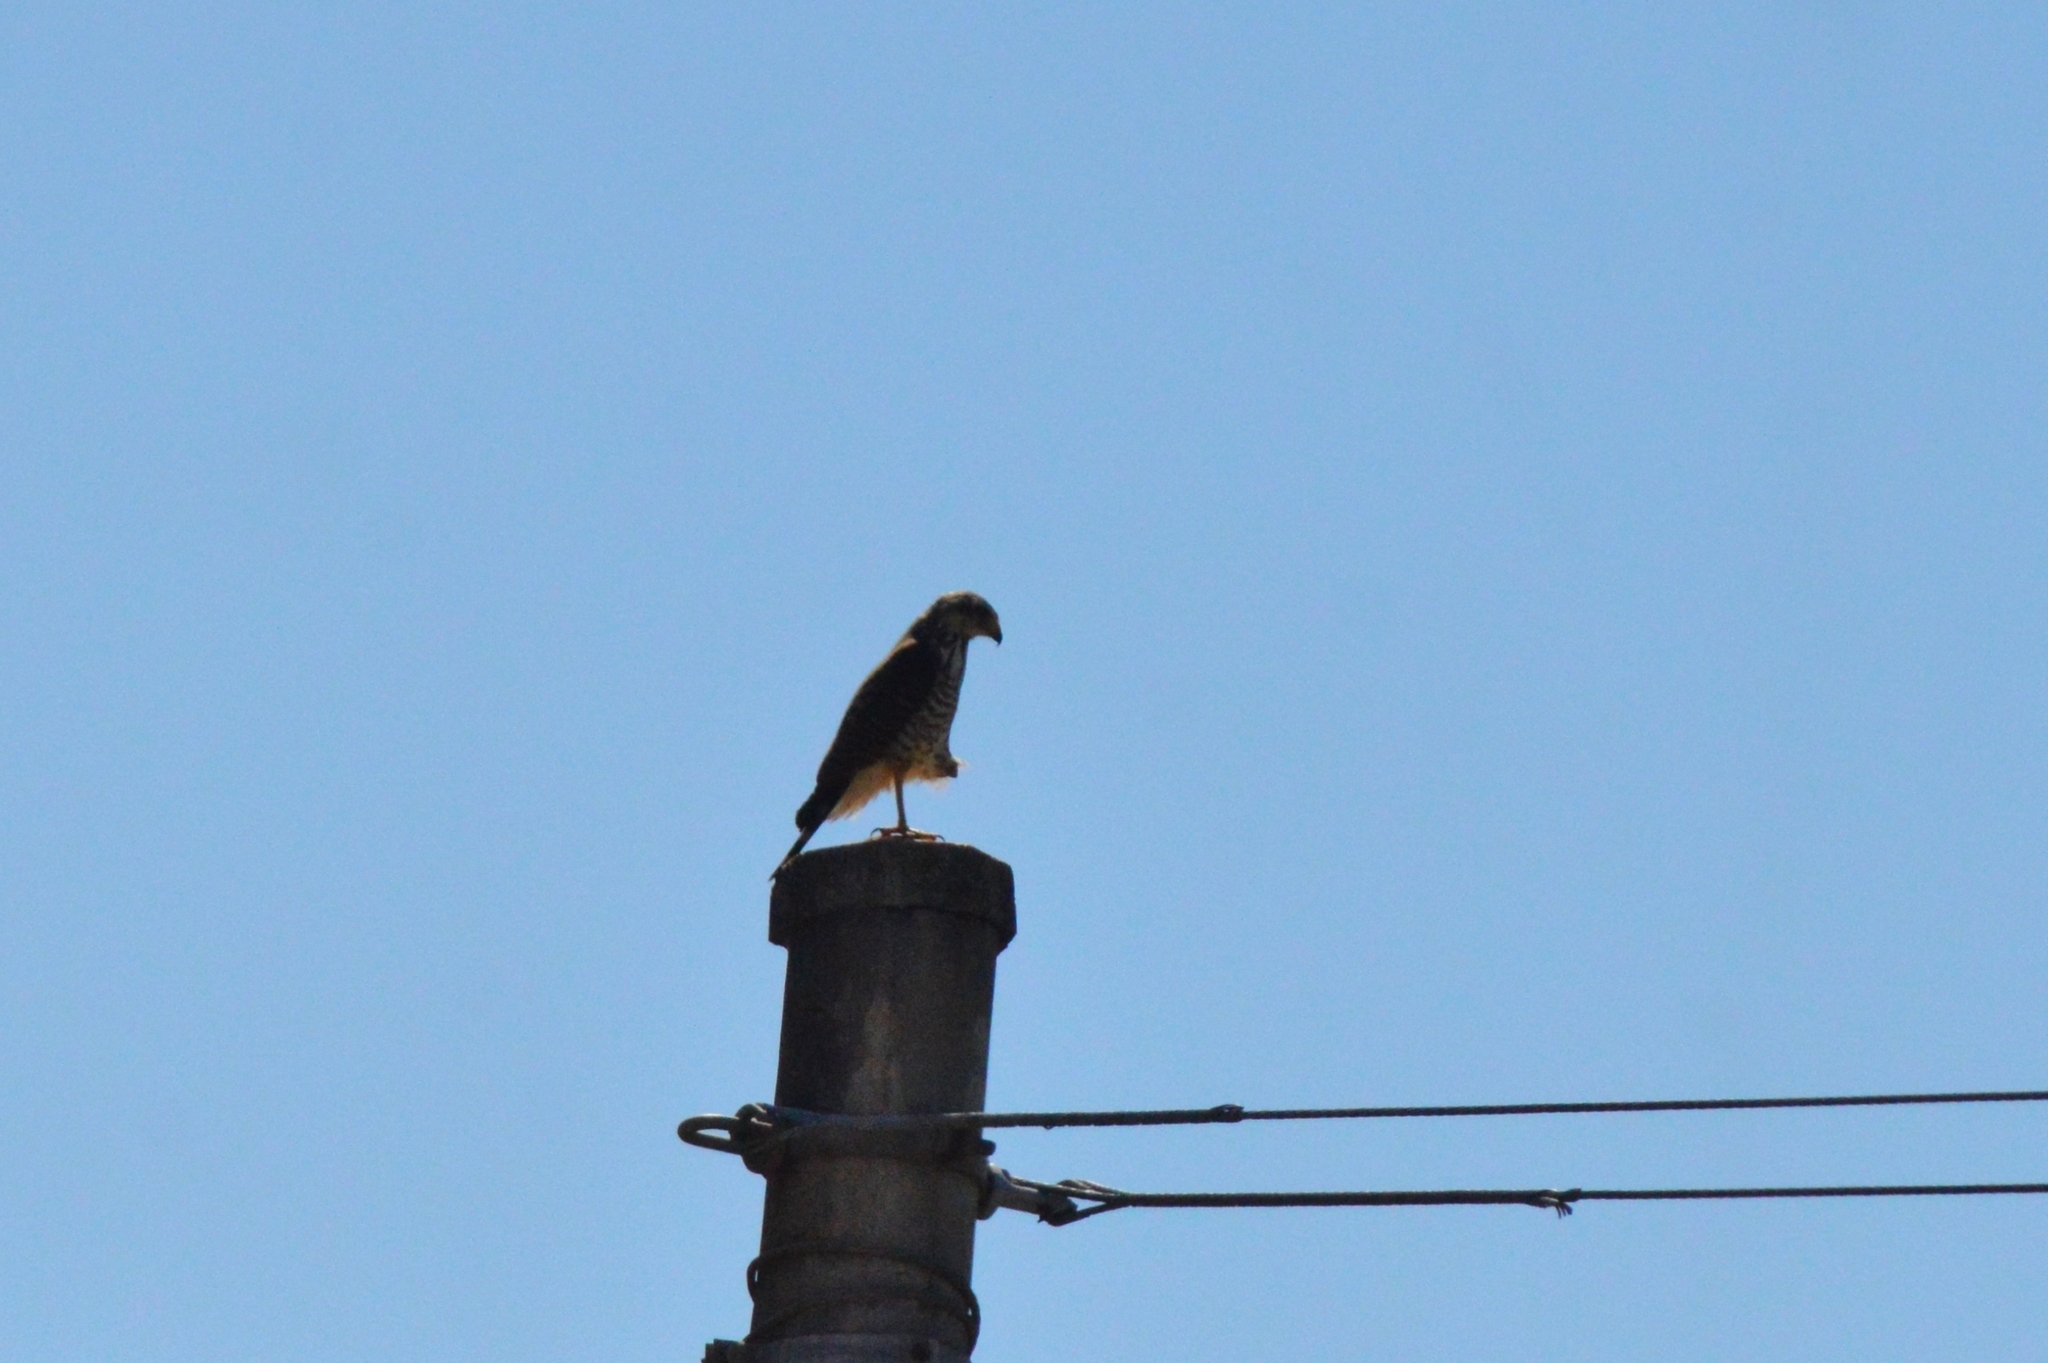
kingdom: Animalia
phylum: Chordata
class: Aves
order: Accipitriformes
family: Accipitridae
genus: Rupornis
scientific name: Rupornis magnirostris
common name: Roadside hawk
